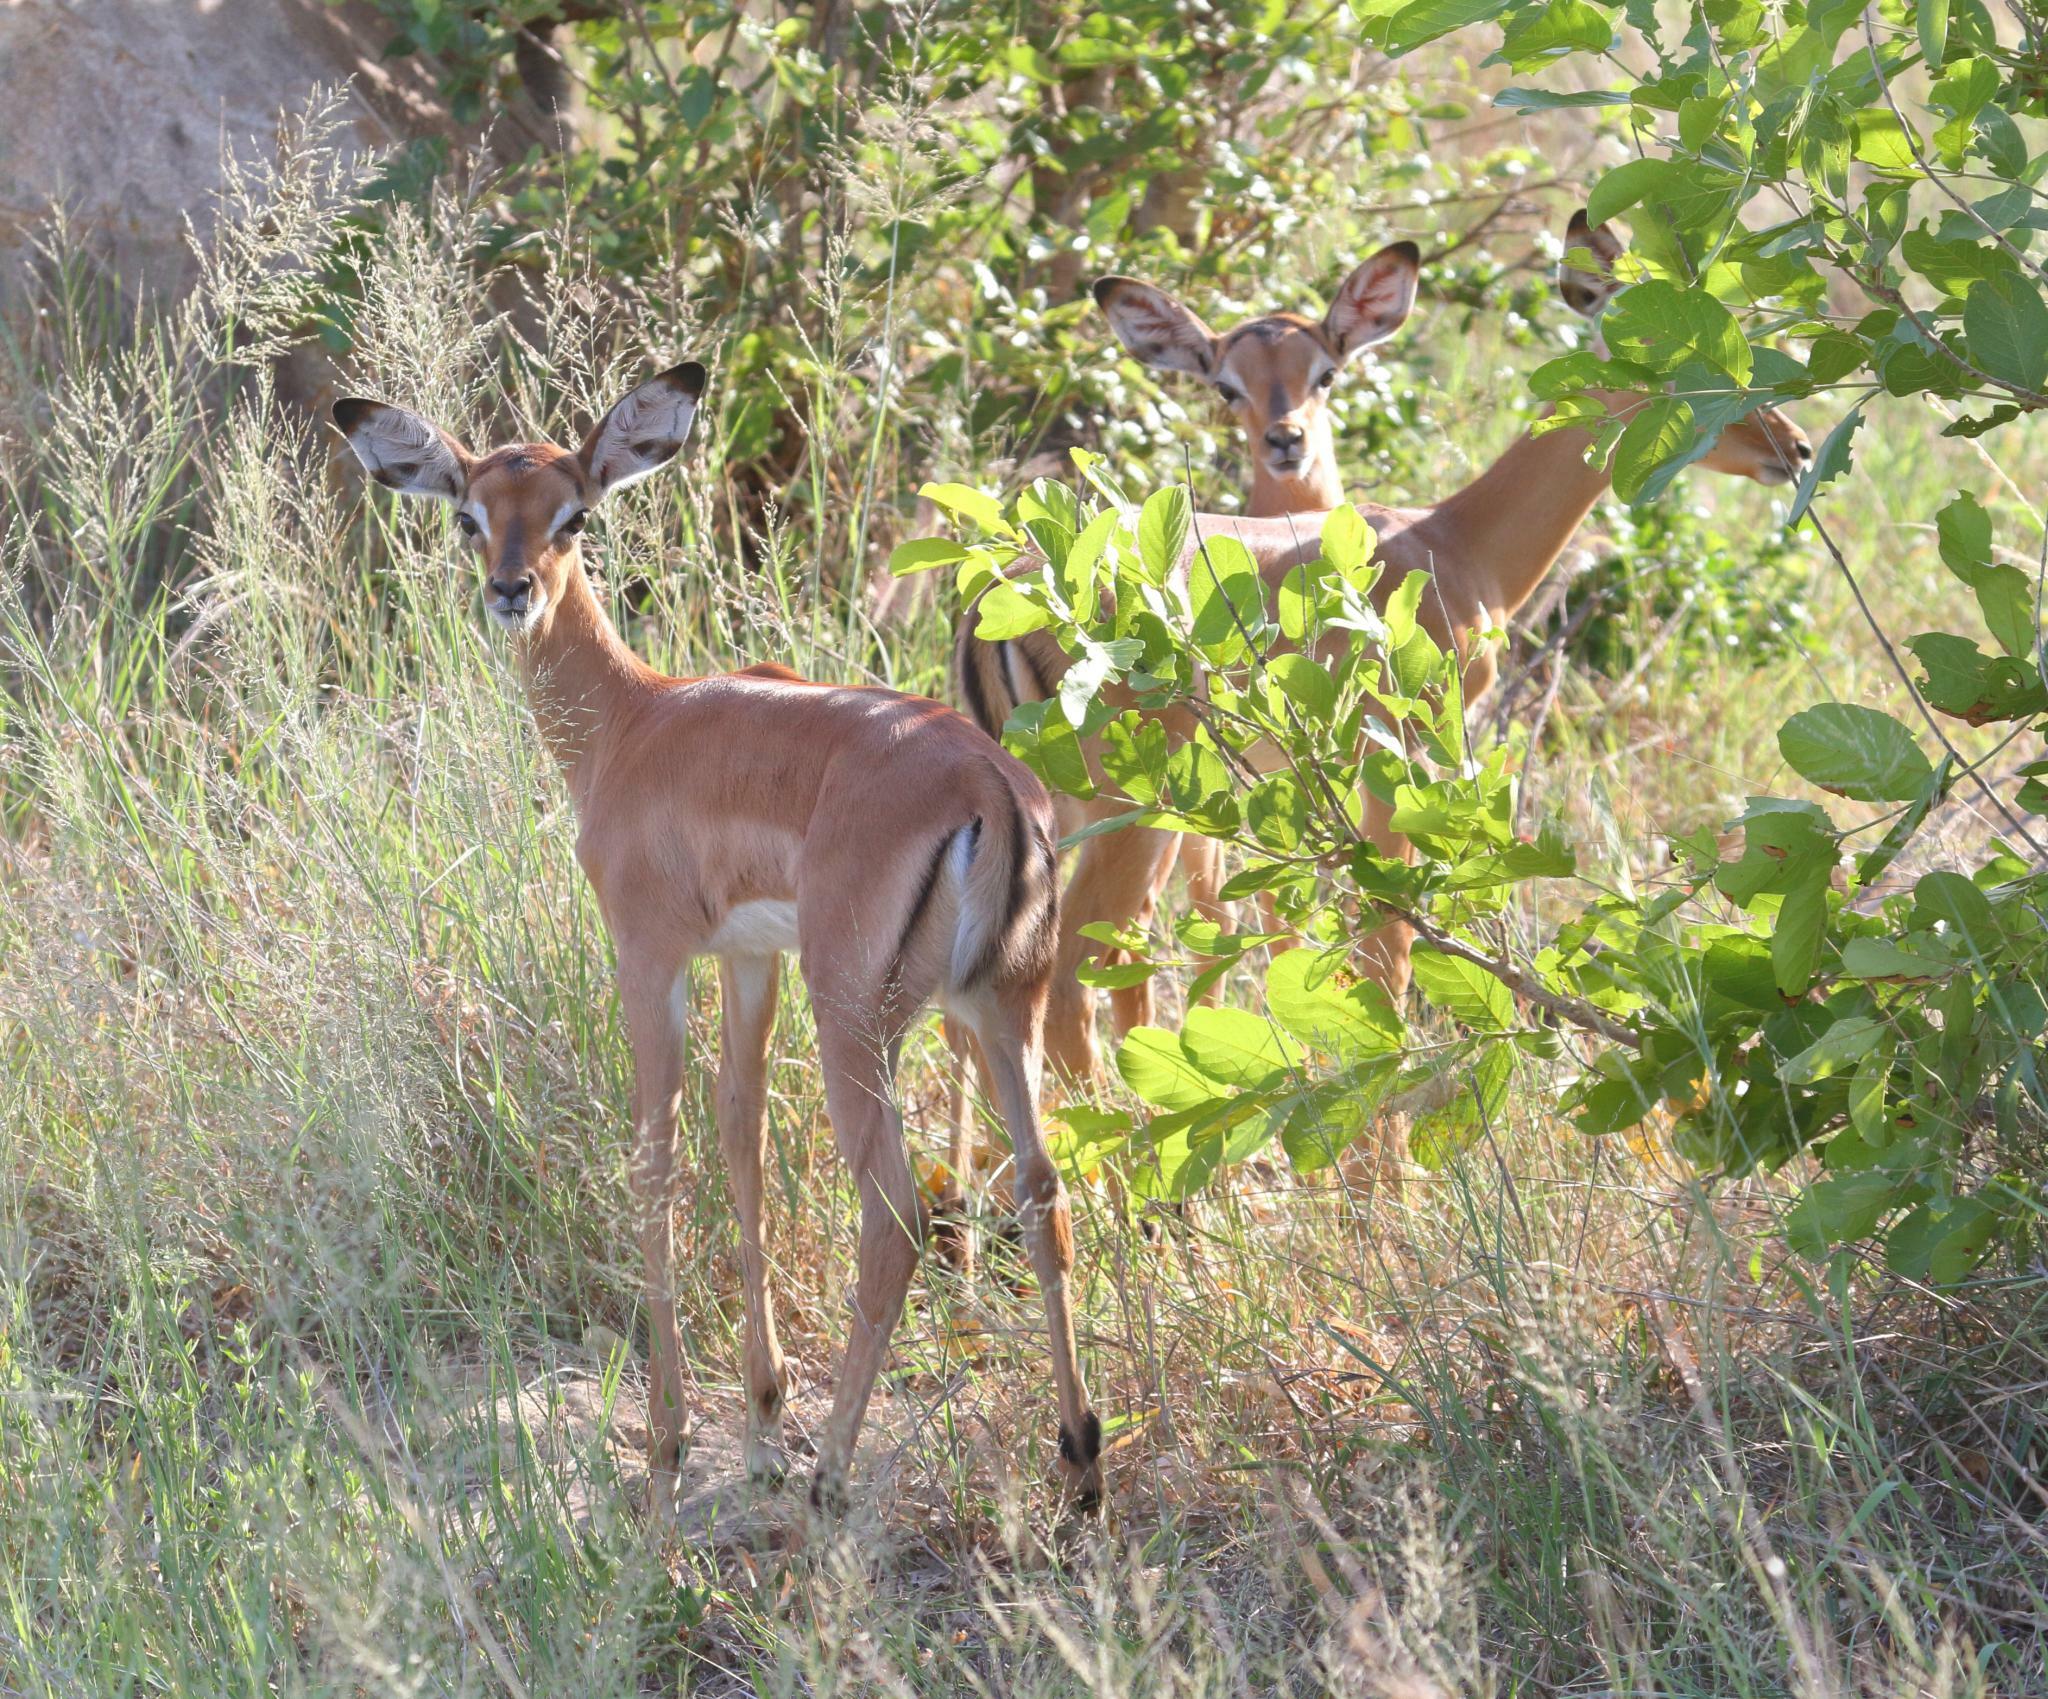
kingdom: Animalia
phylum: Chordata
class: Mammalia
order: Artiodactyla
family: Bovidae
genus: Aepyceros
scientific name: Aepyceros melampus
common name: Impala
